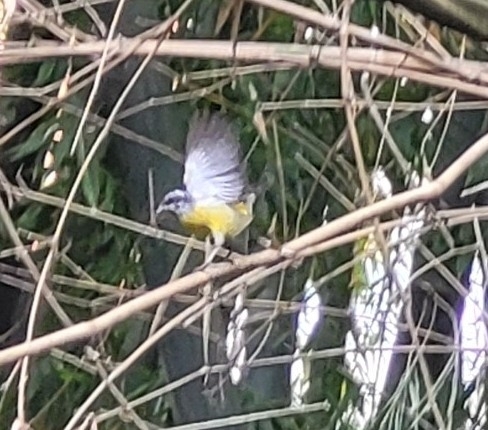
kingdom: Animalia
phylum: Chordata
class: Aves
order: Passeriformes
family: Thraupidae
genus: Coereba
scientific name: Coereba flaveola
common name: Bananaquit
